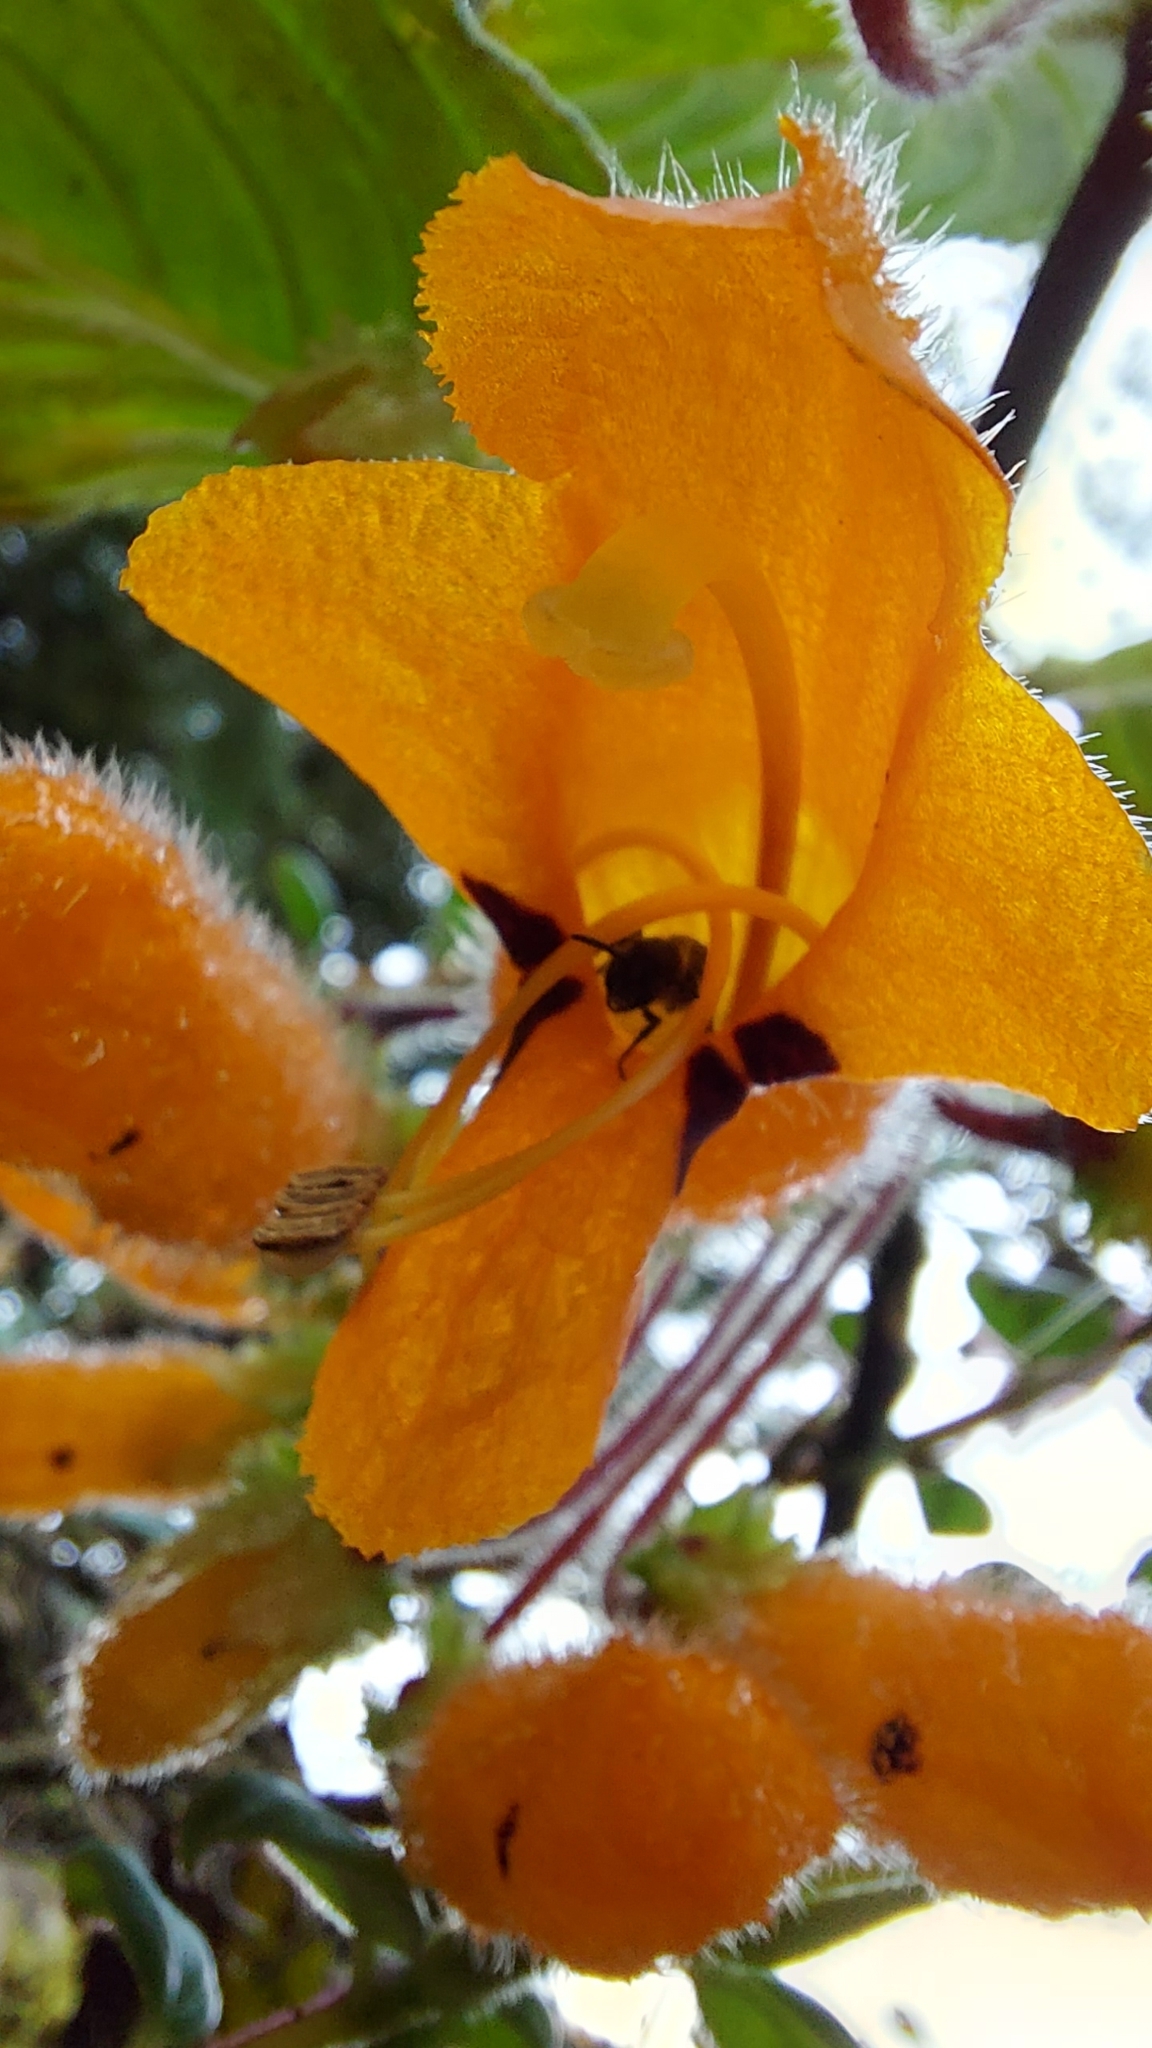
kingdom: Plantae
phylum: Tracheophyta
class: Magnoliopsida
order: Lamiales
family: Gesneriaceae
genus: Columnea
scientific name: Columnea strigosa
